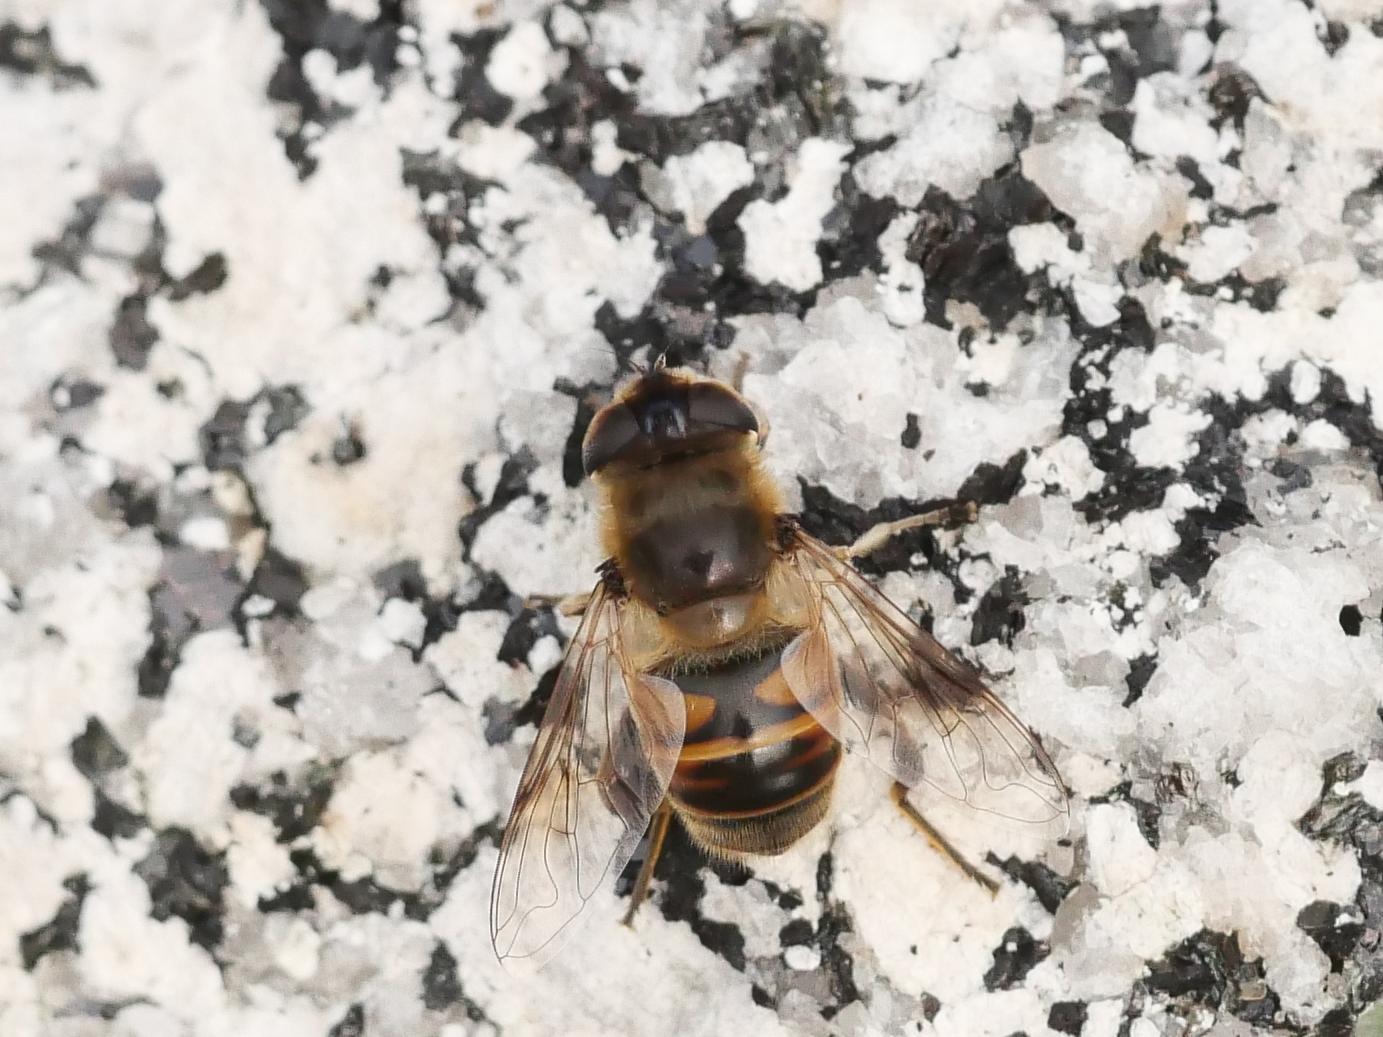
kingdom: Animalia
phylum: Arthropoda
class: Insecta
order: Diptera
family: Syrphidae
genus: Eristalis
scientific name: Eristalis tenax
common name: Drone fly
